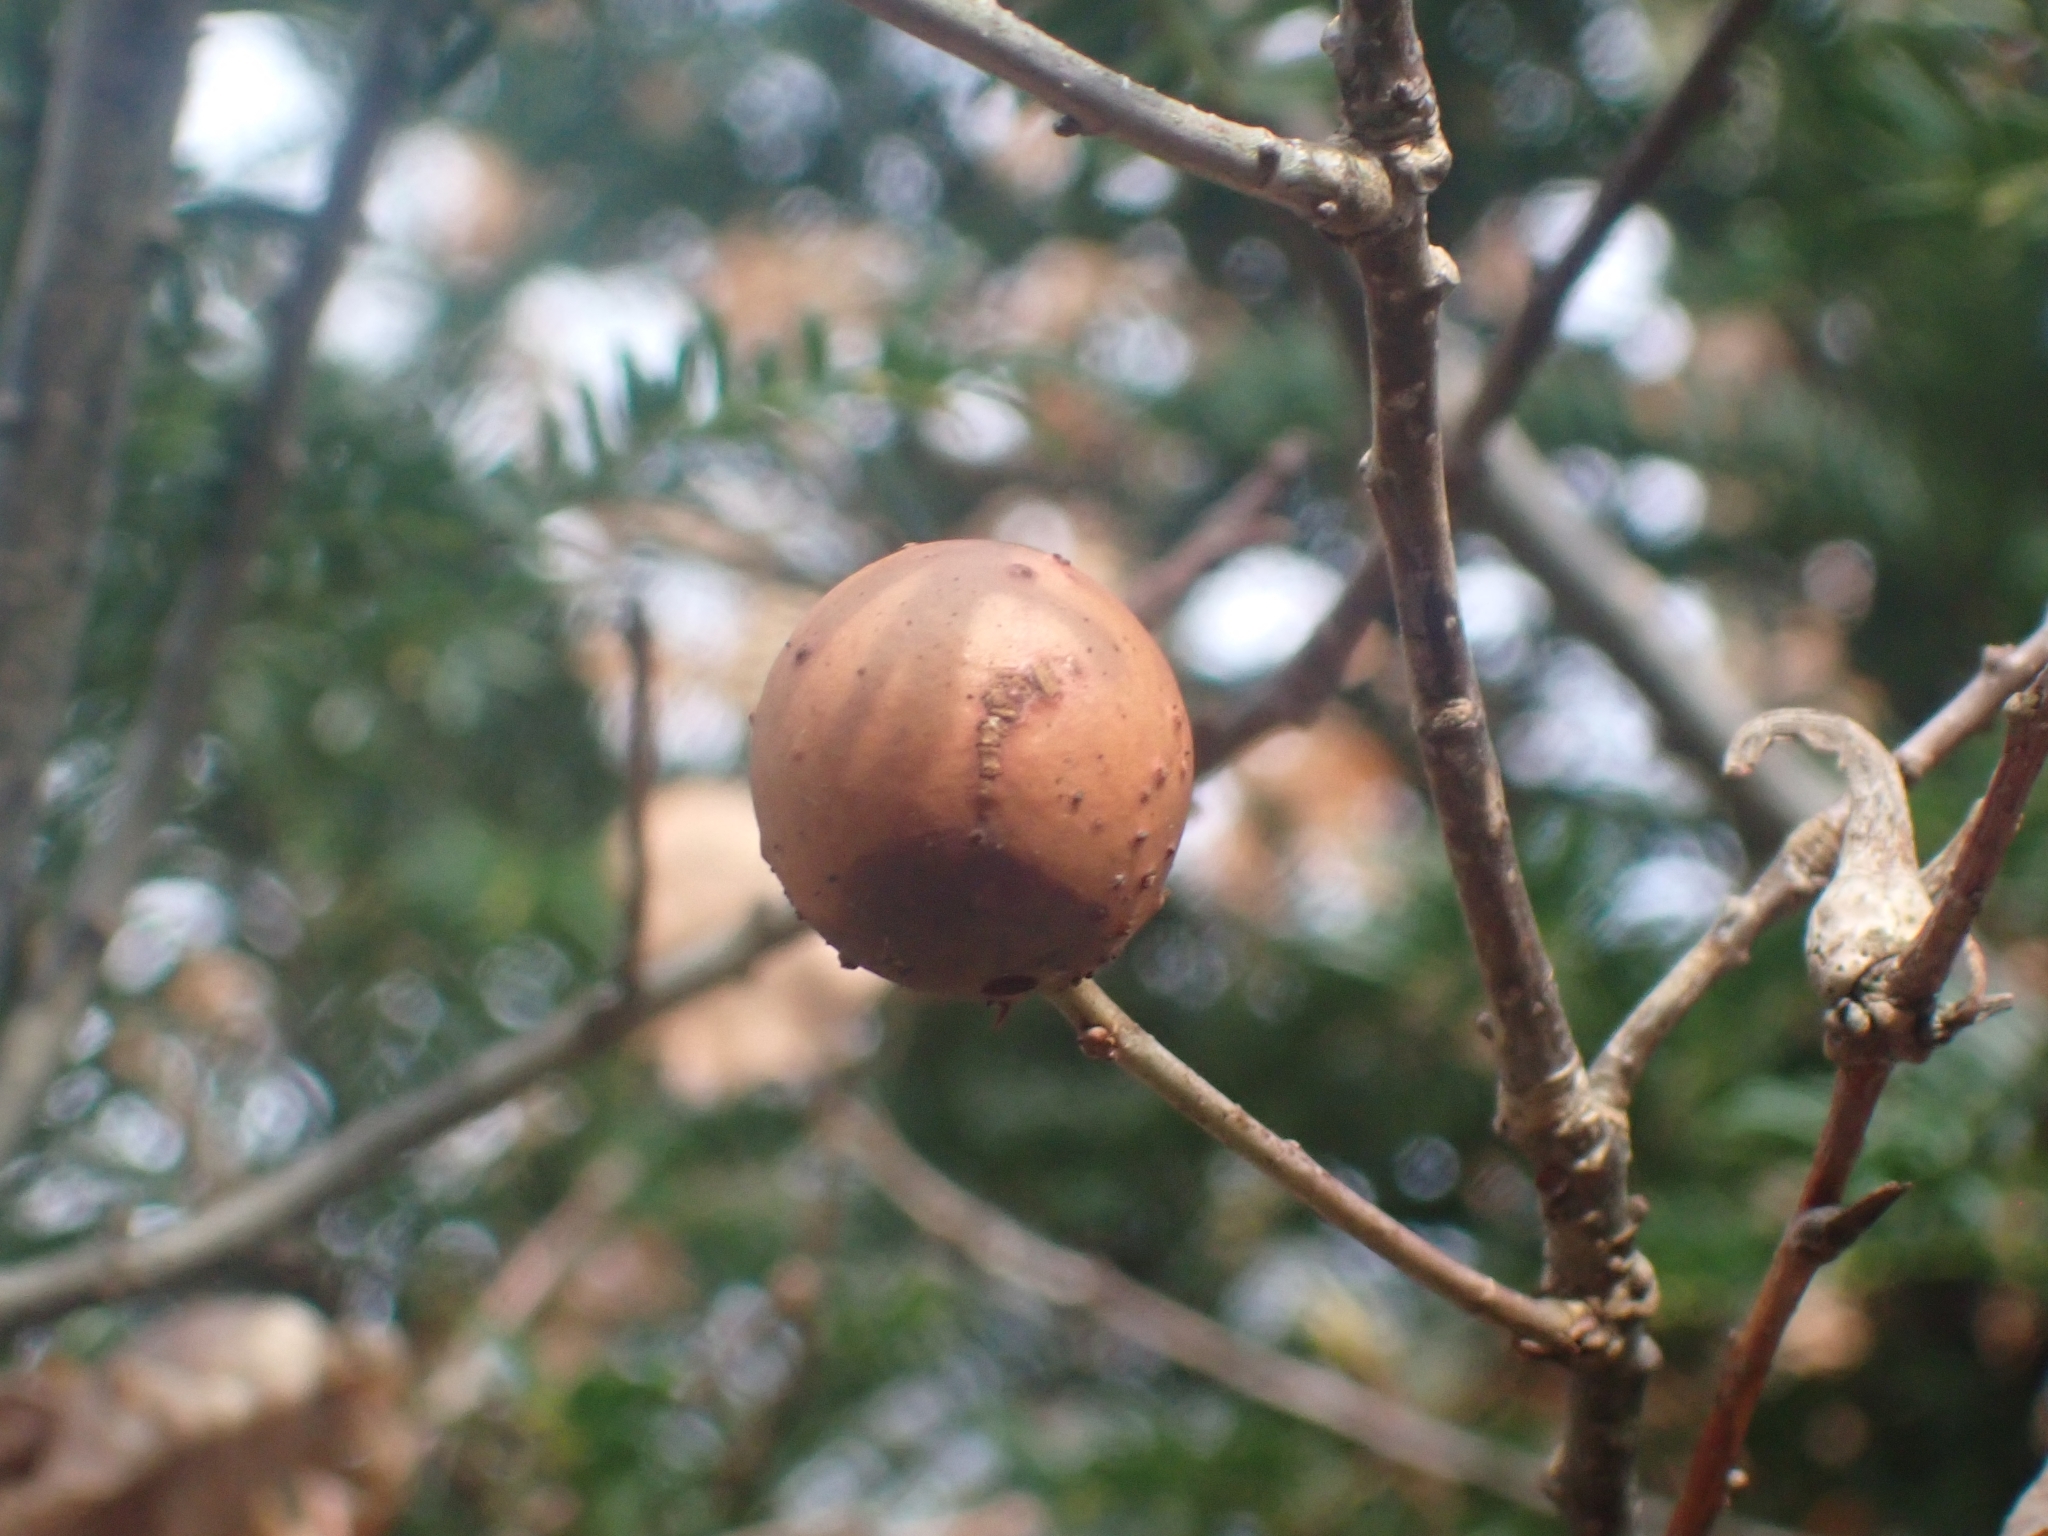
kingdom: Animalia
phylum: Arthropoda
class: Insecta
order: Hymenoptera
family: Cynipidae
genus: Andricus
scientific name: Andricus kollari
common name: Marble gall
